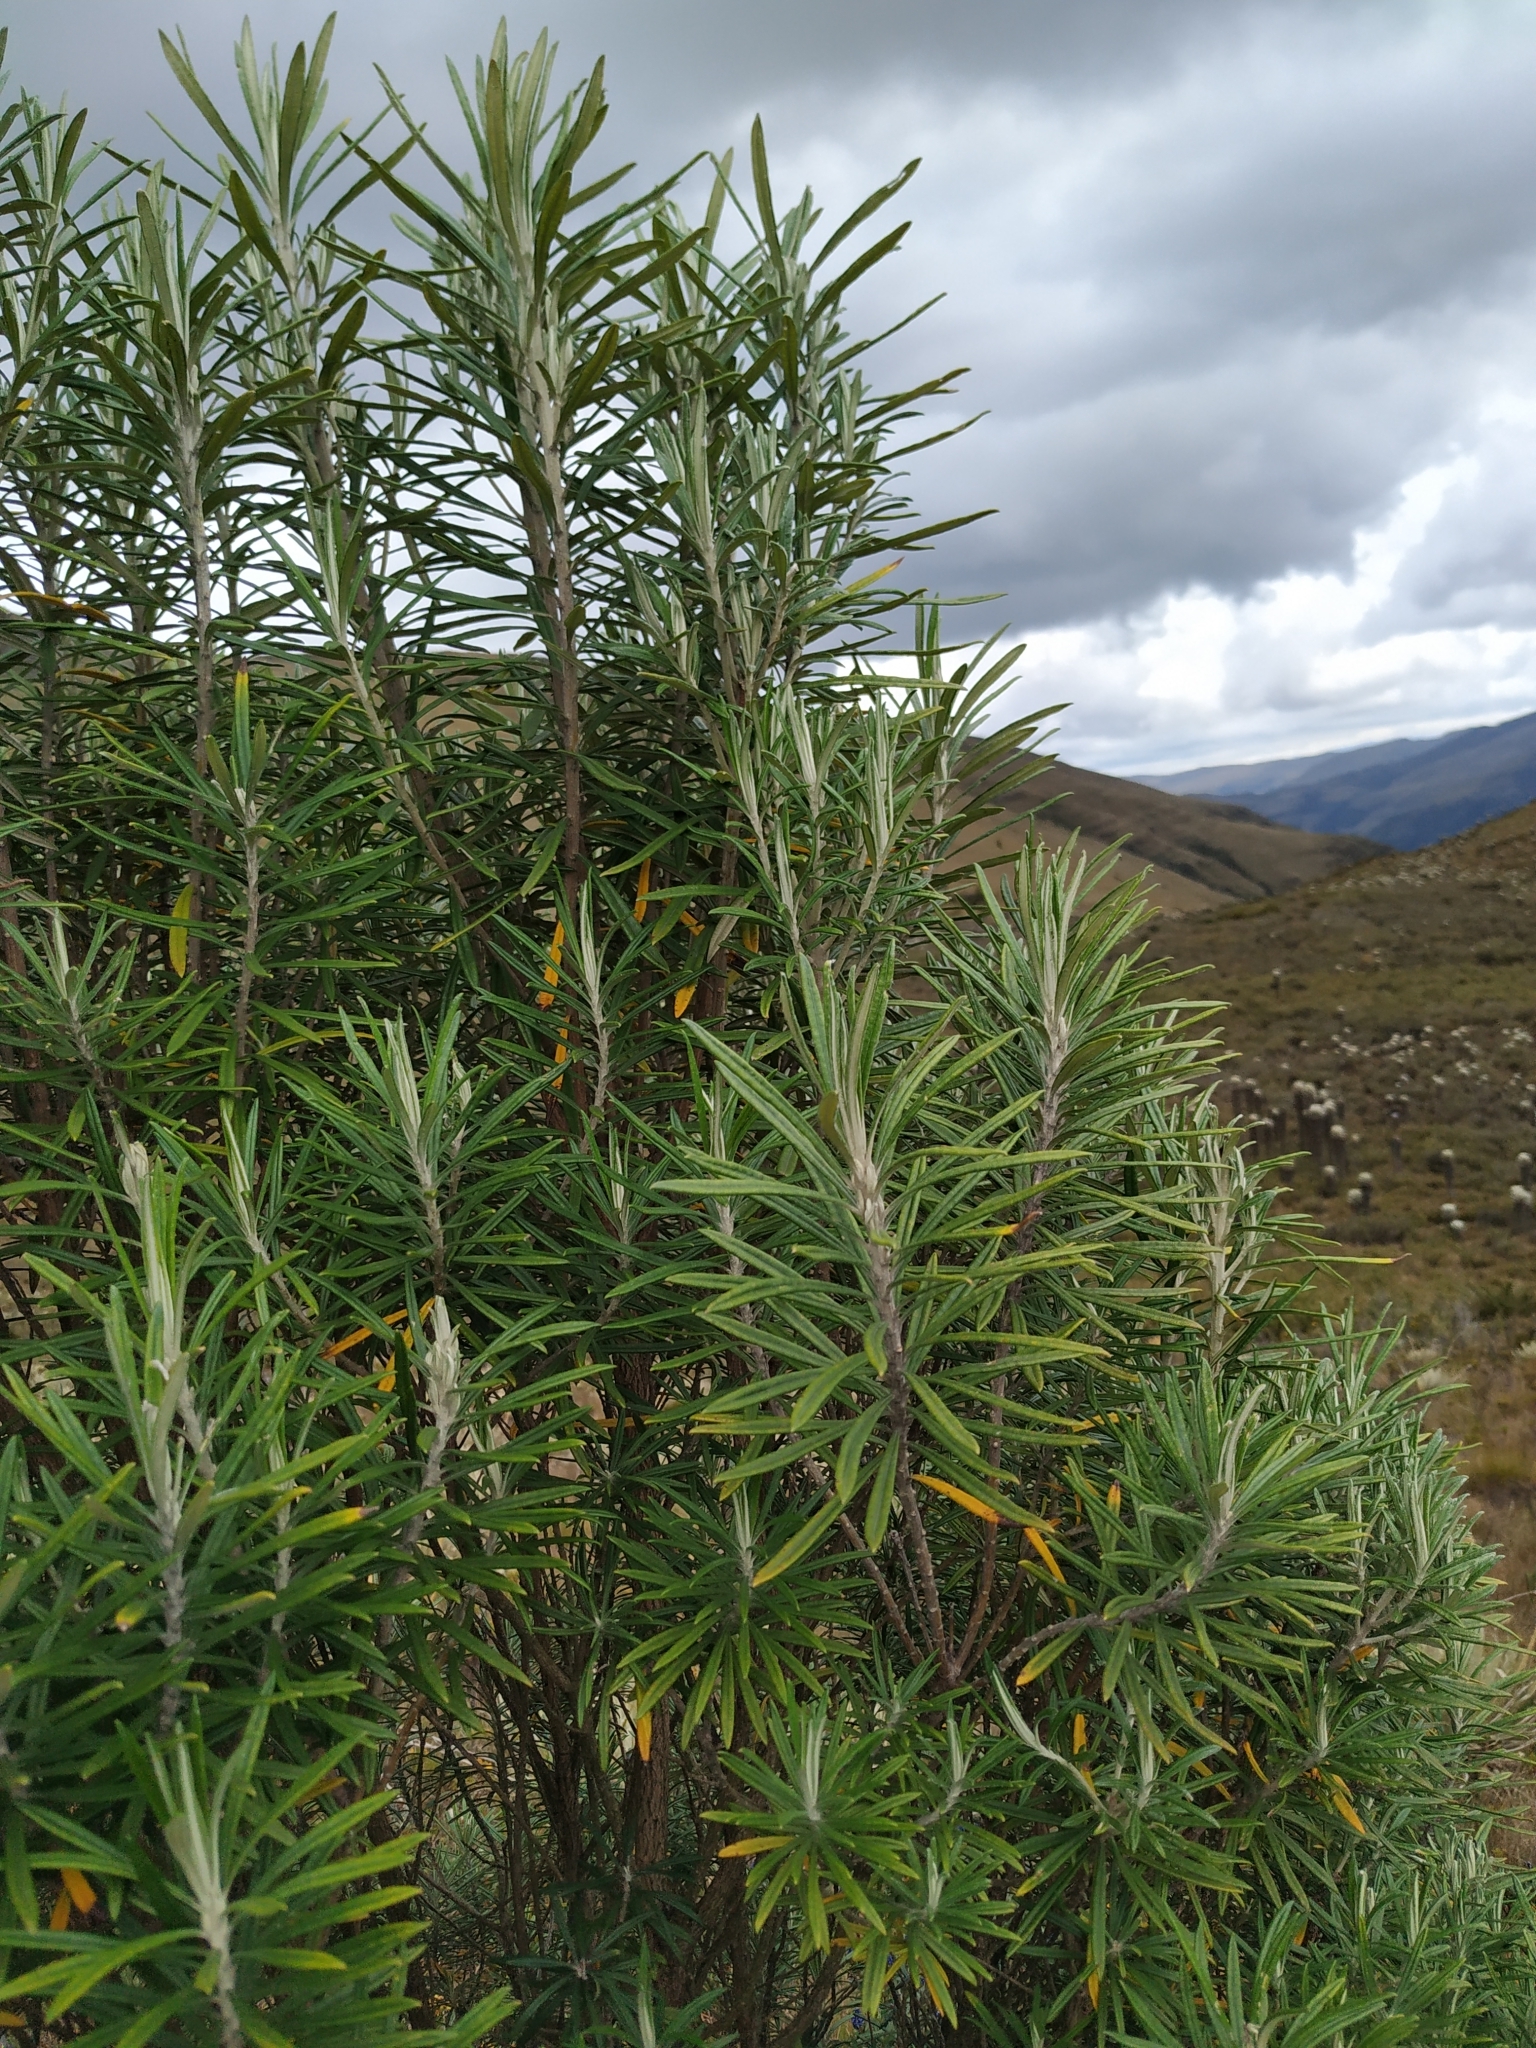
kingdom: Plantae
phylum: Tracheophyta
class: Magnoliopsida
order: Asterales
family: Asteraceae
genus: Linochilus
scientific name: Linochilus rosmarinifolius
